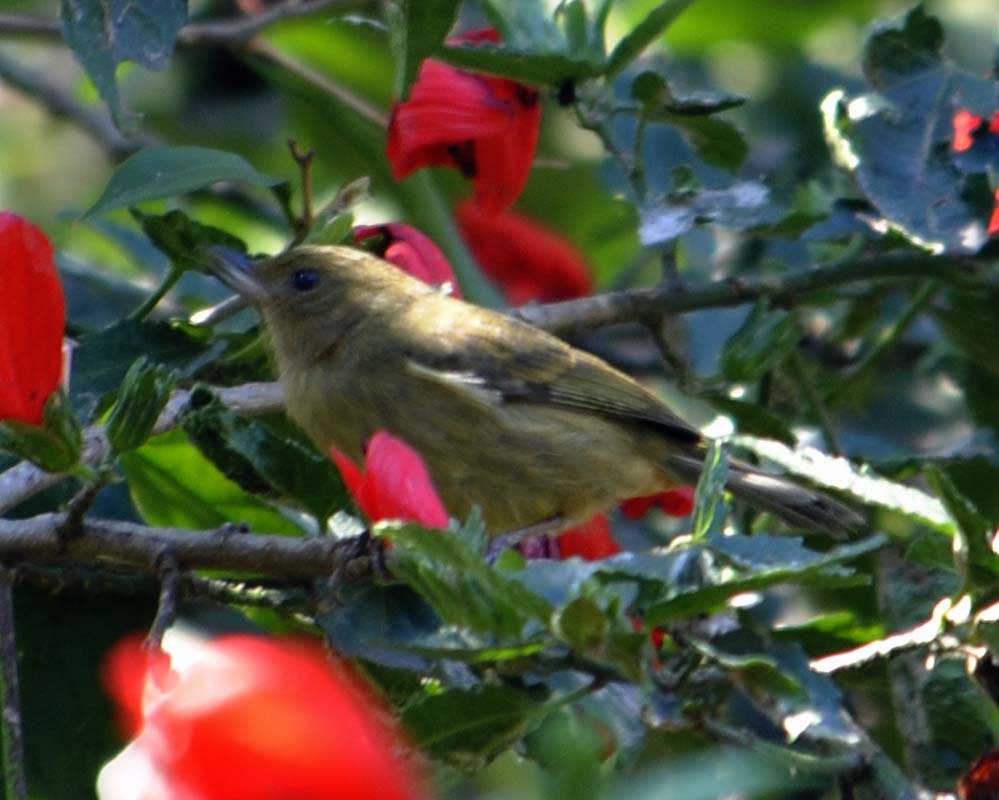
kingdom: Animalia
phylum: Chordata
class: Aves
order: Passeriformes
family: Thraupidae
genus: Diglossa
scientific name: Diglossa baritula
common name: Cinnamon-bellied flowerpiercer
